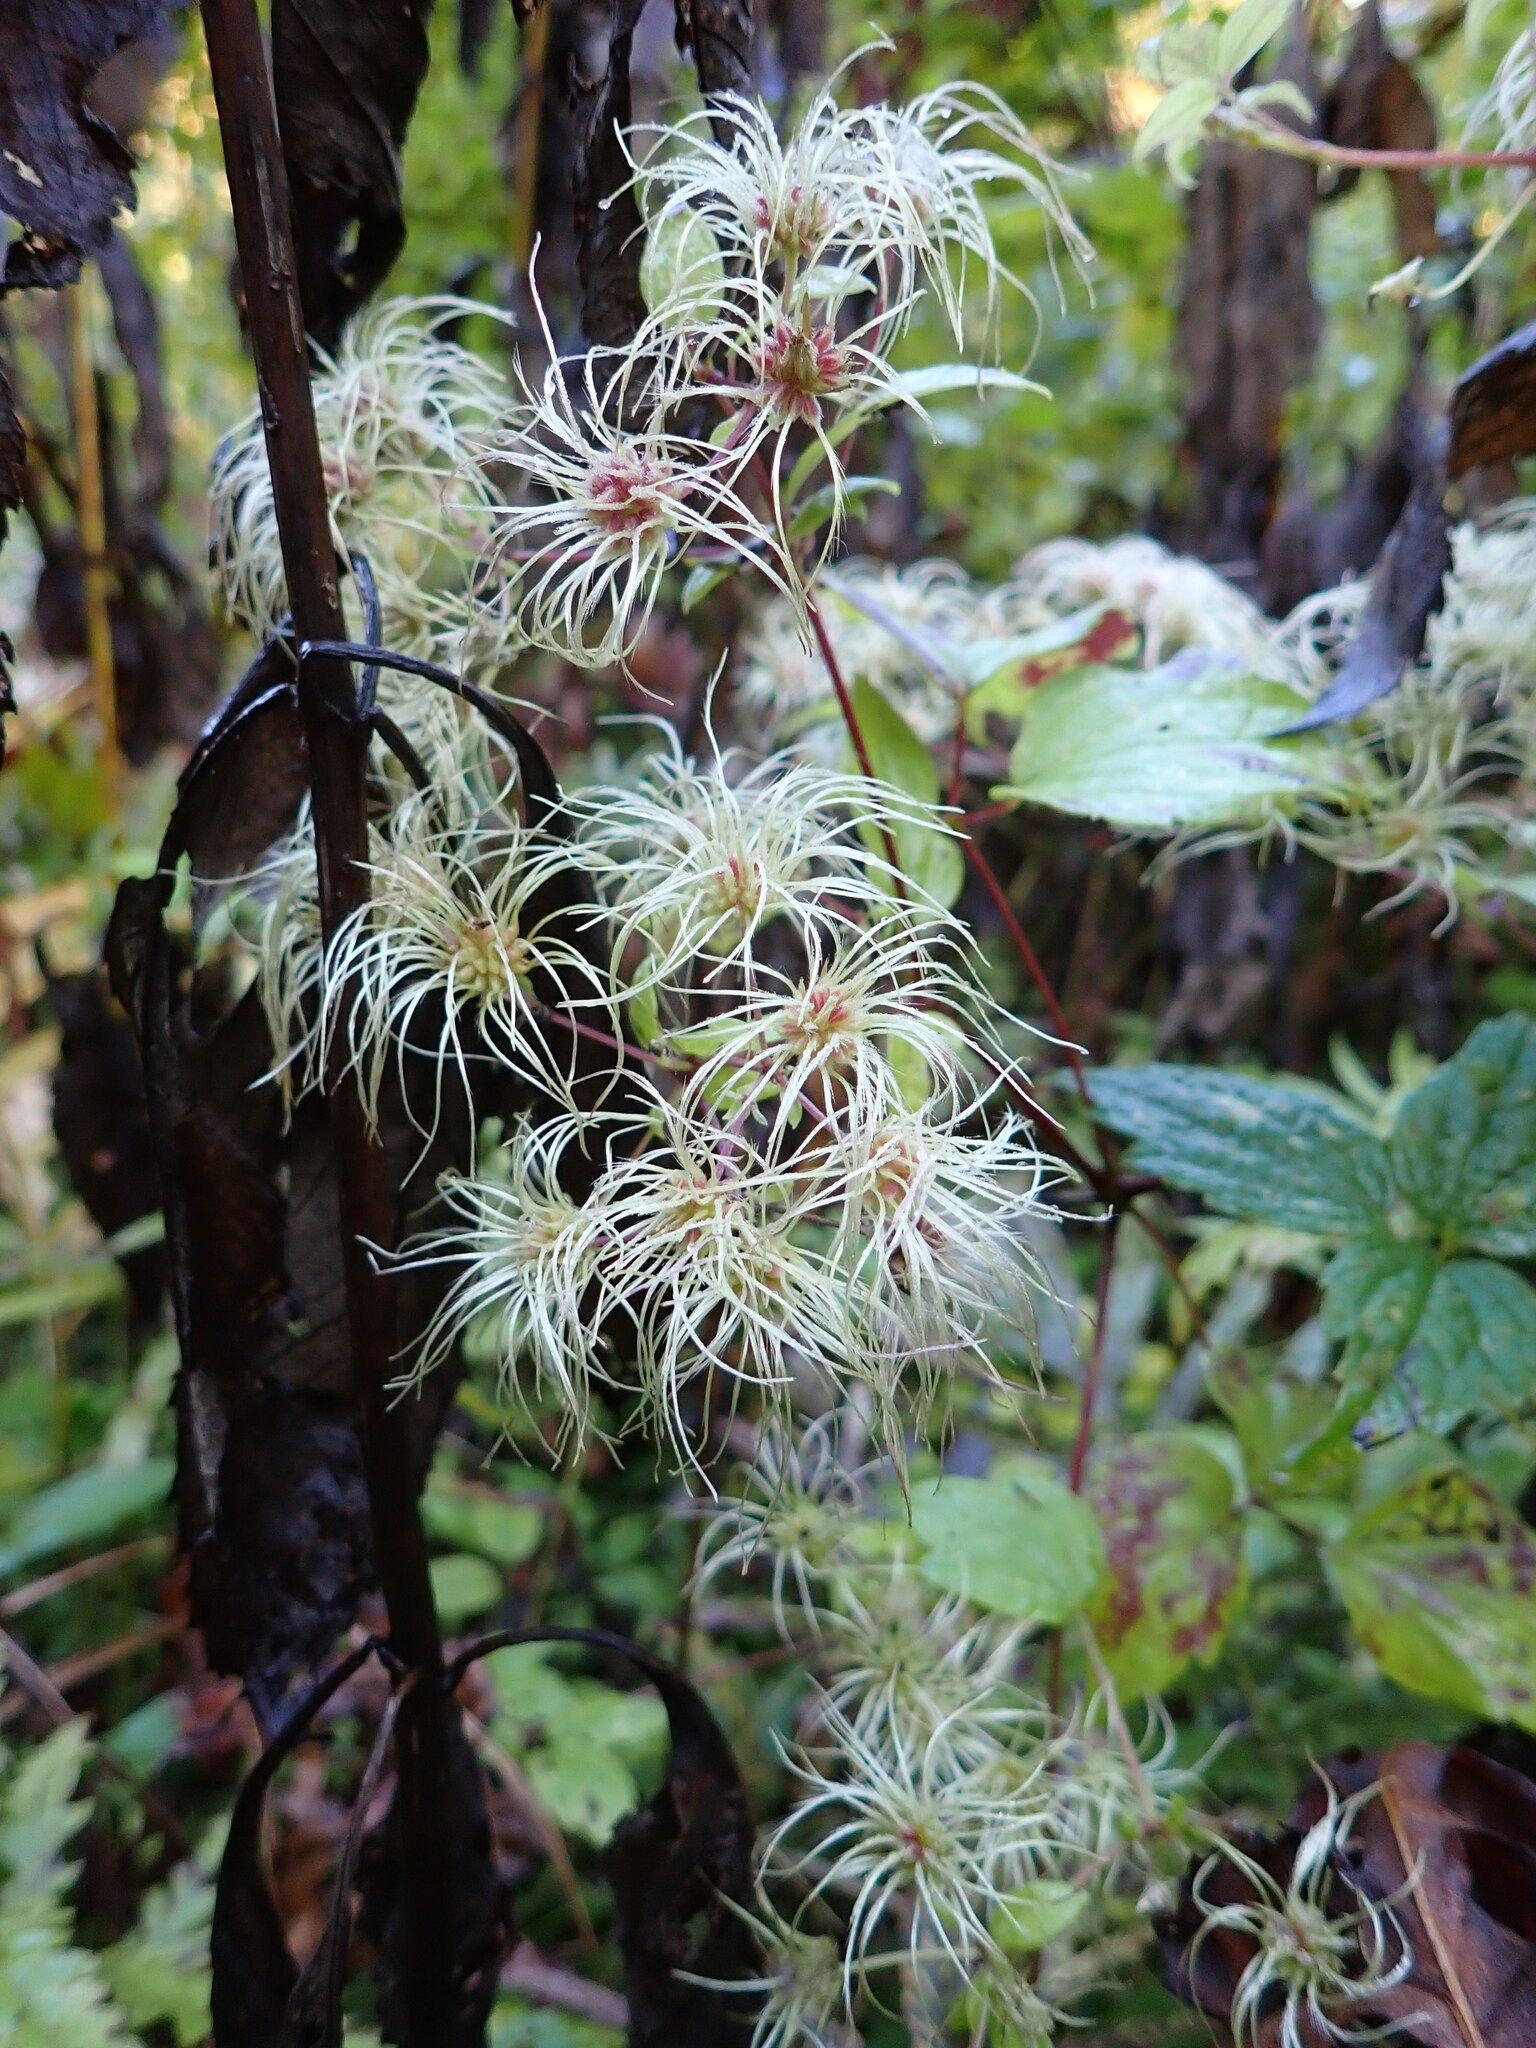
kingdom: Plantae
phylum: Tracheophyta
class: Magnoliopsida
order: Ranunculales
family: Ranunculaceae
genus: Clematis
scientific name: Clematis virginiana
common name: Virgin's-bower
